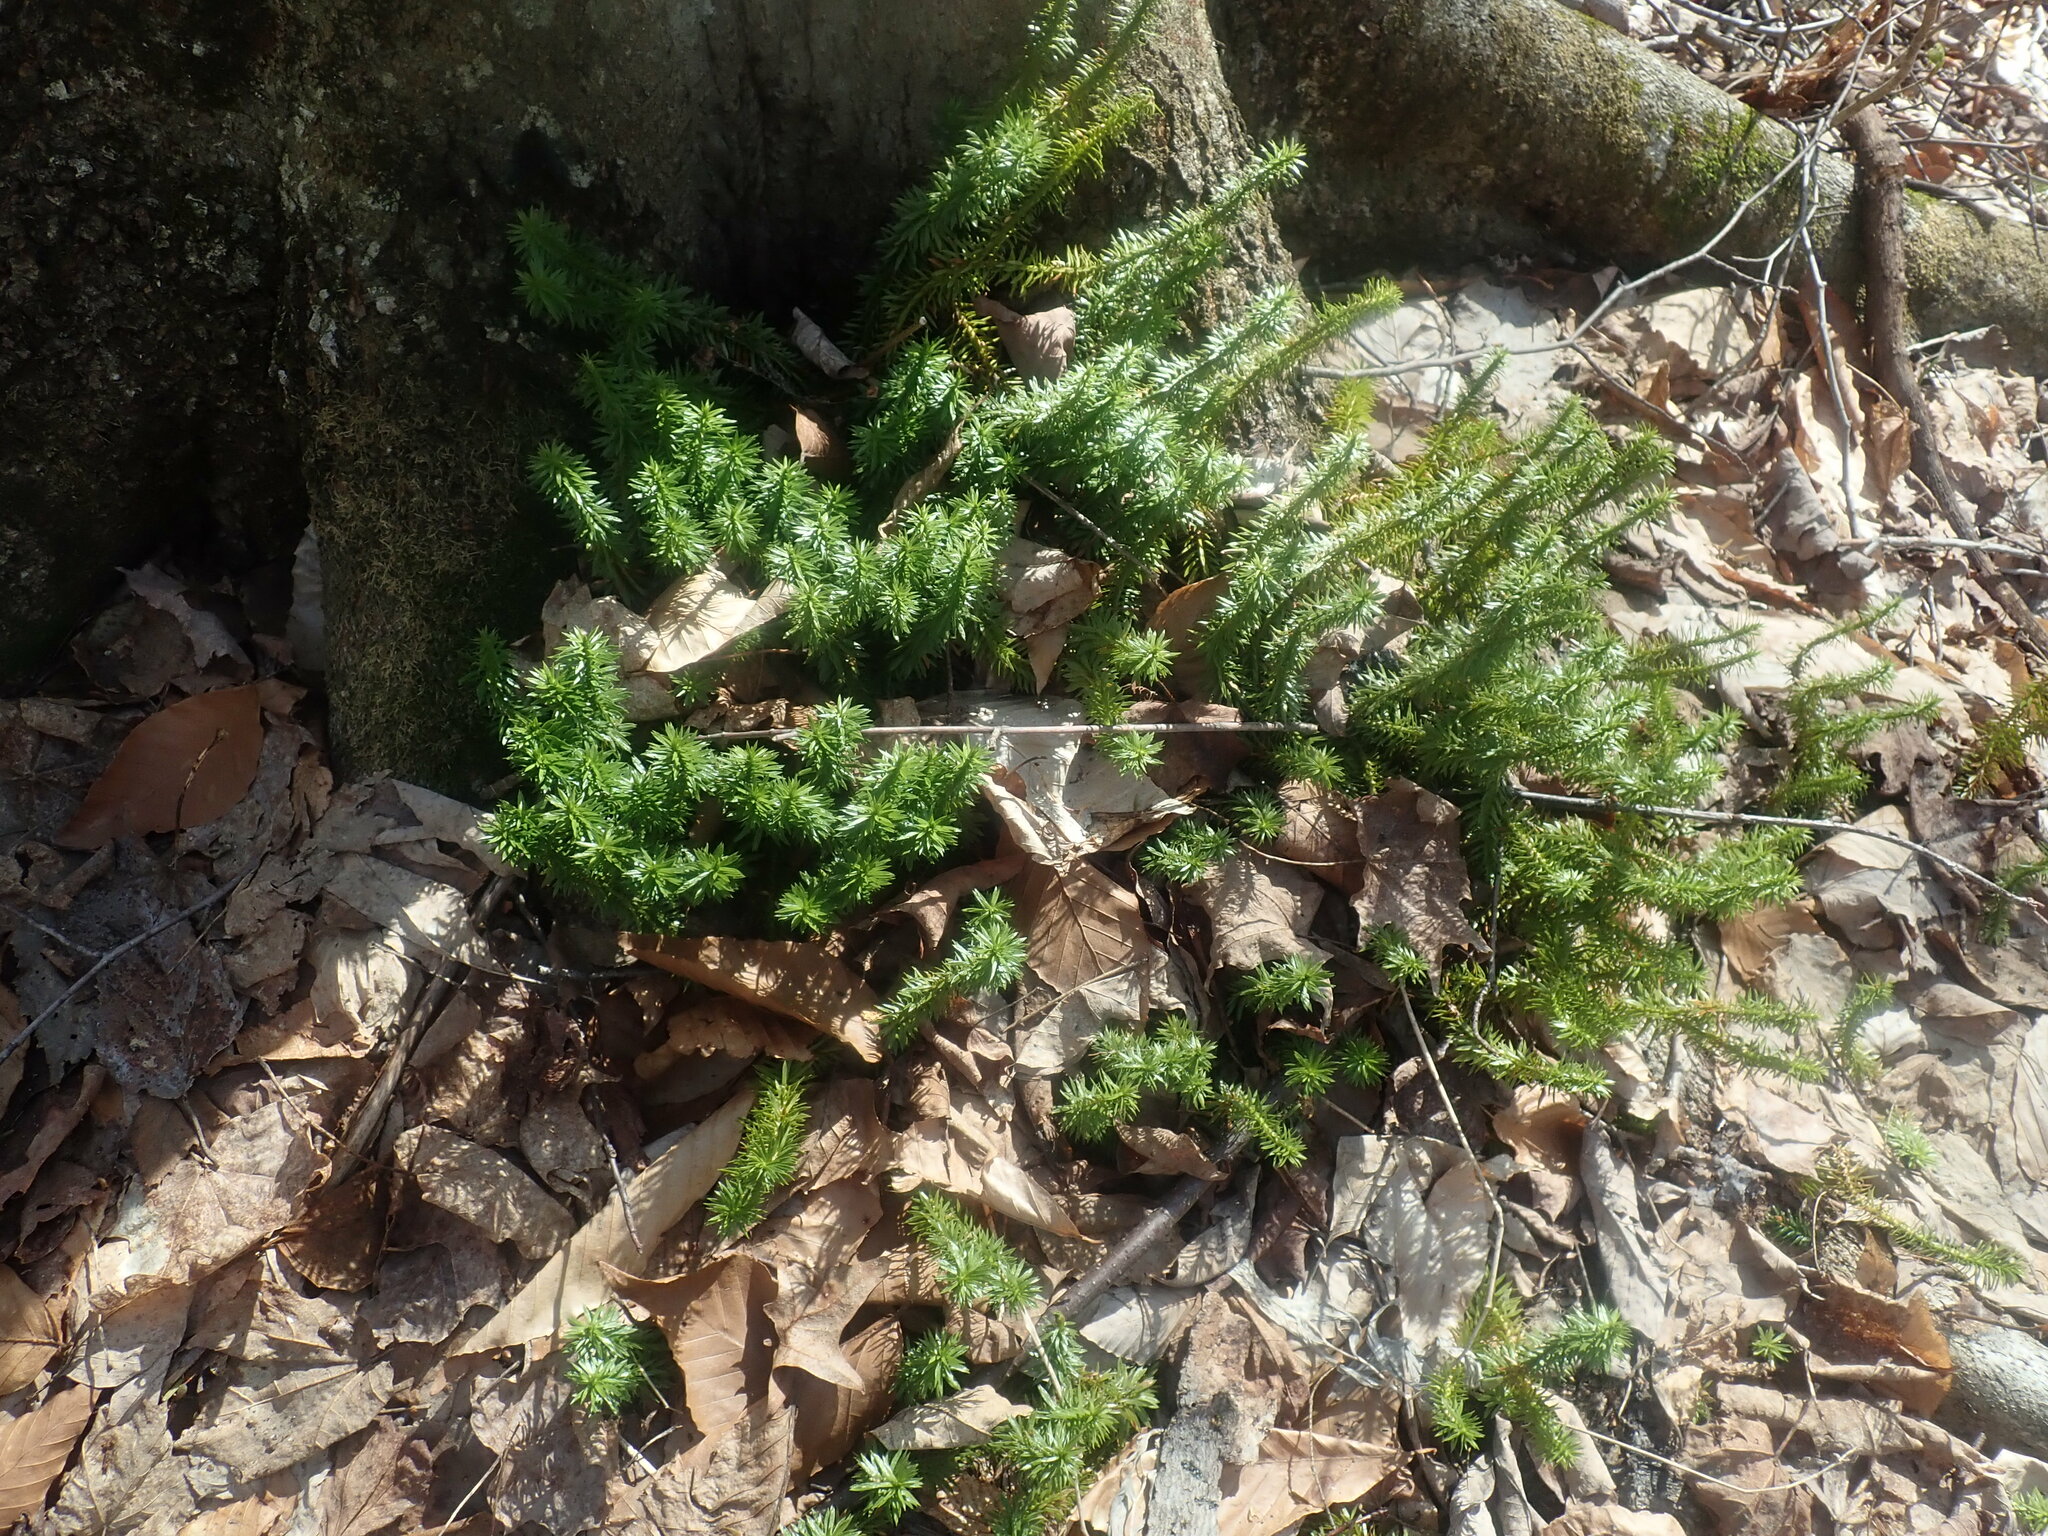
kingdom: Plantae
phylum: Tracheophyta
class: Lycopodiopsida
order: Lycopodiales
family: Lycopodiaceae
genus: Huperzia
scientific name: Huperzia lucidula
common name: Shining clubmoss
